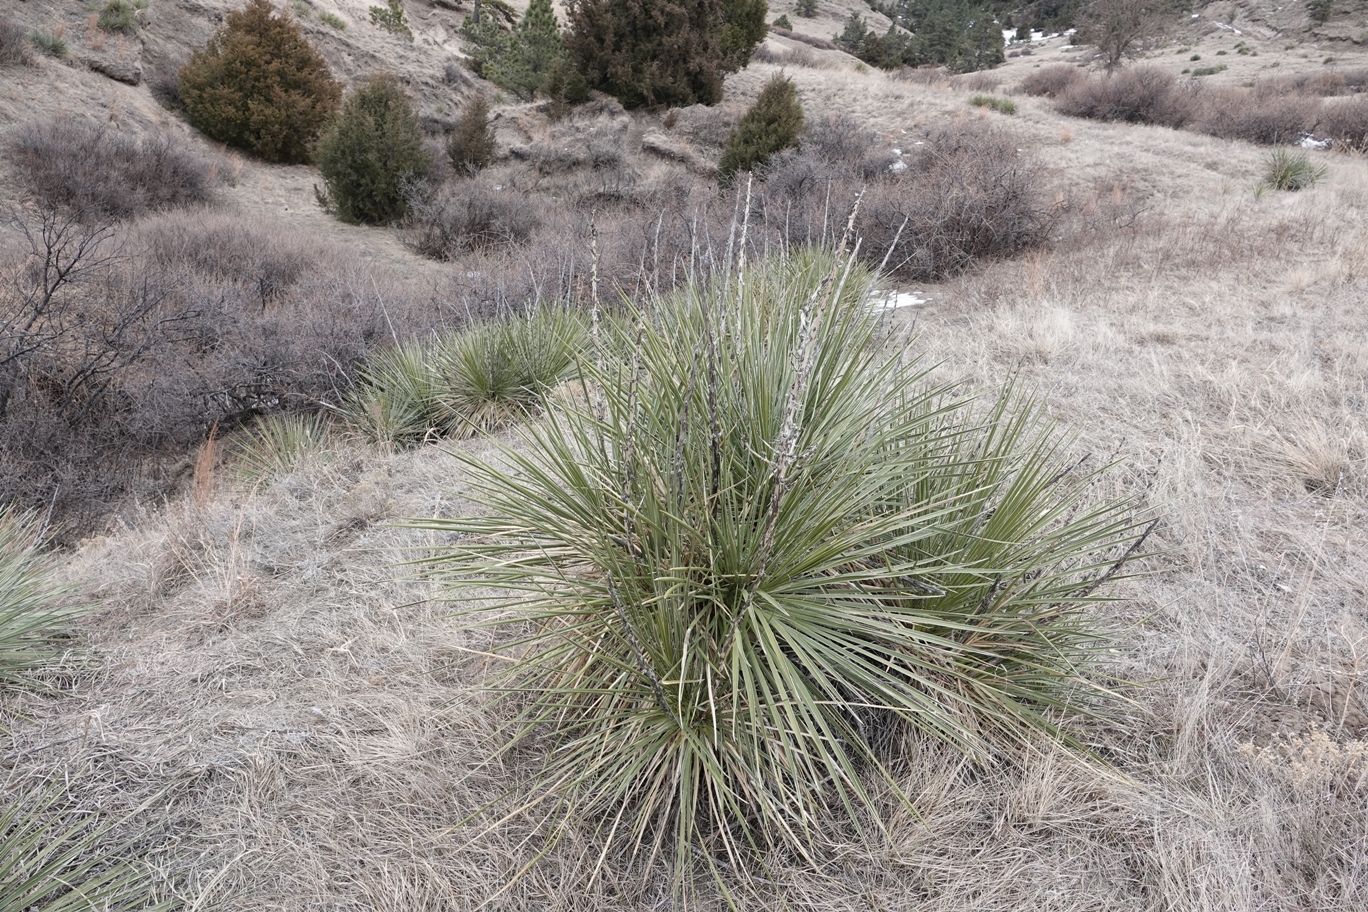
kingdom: Plantae
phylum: Tracheophyta
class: Liliopsida
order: Asparagales
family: Asparagaceae
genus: Yucca
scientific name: Yucca glauca
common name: Great plains yucca
